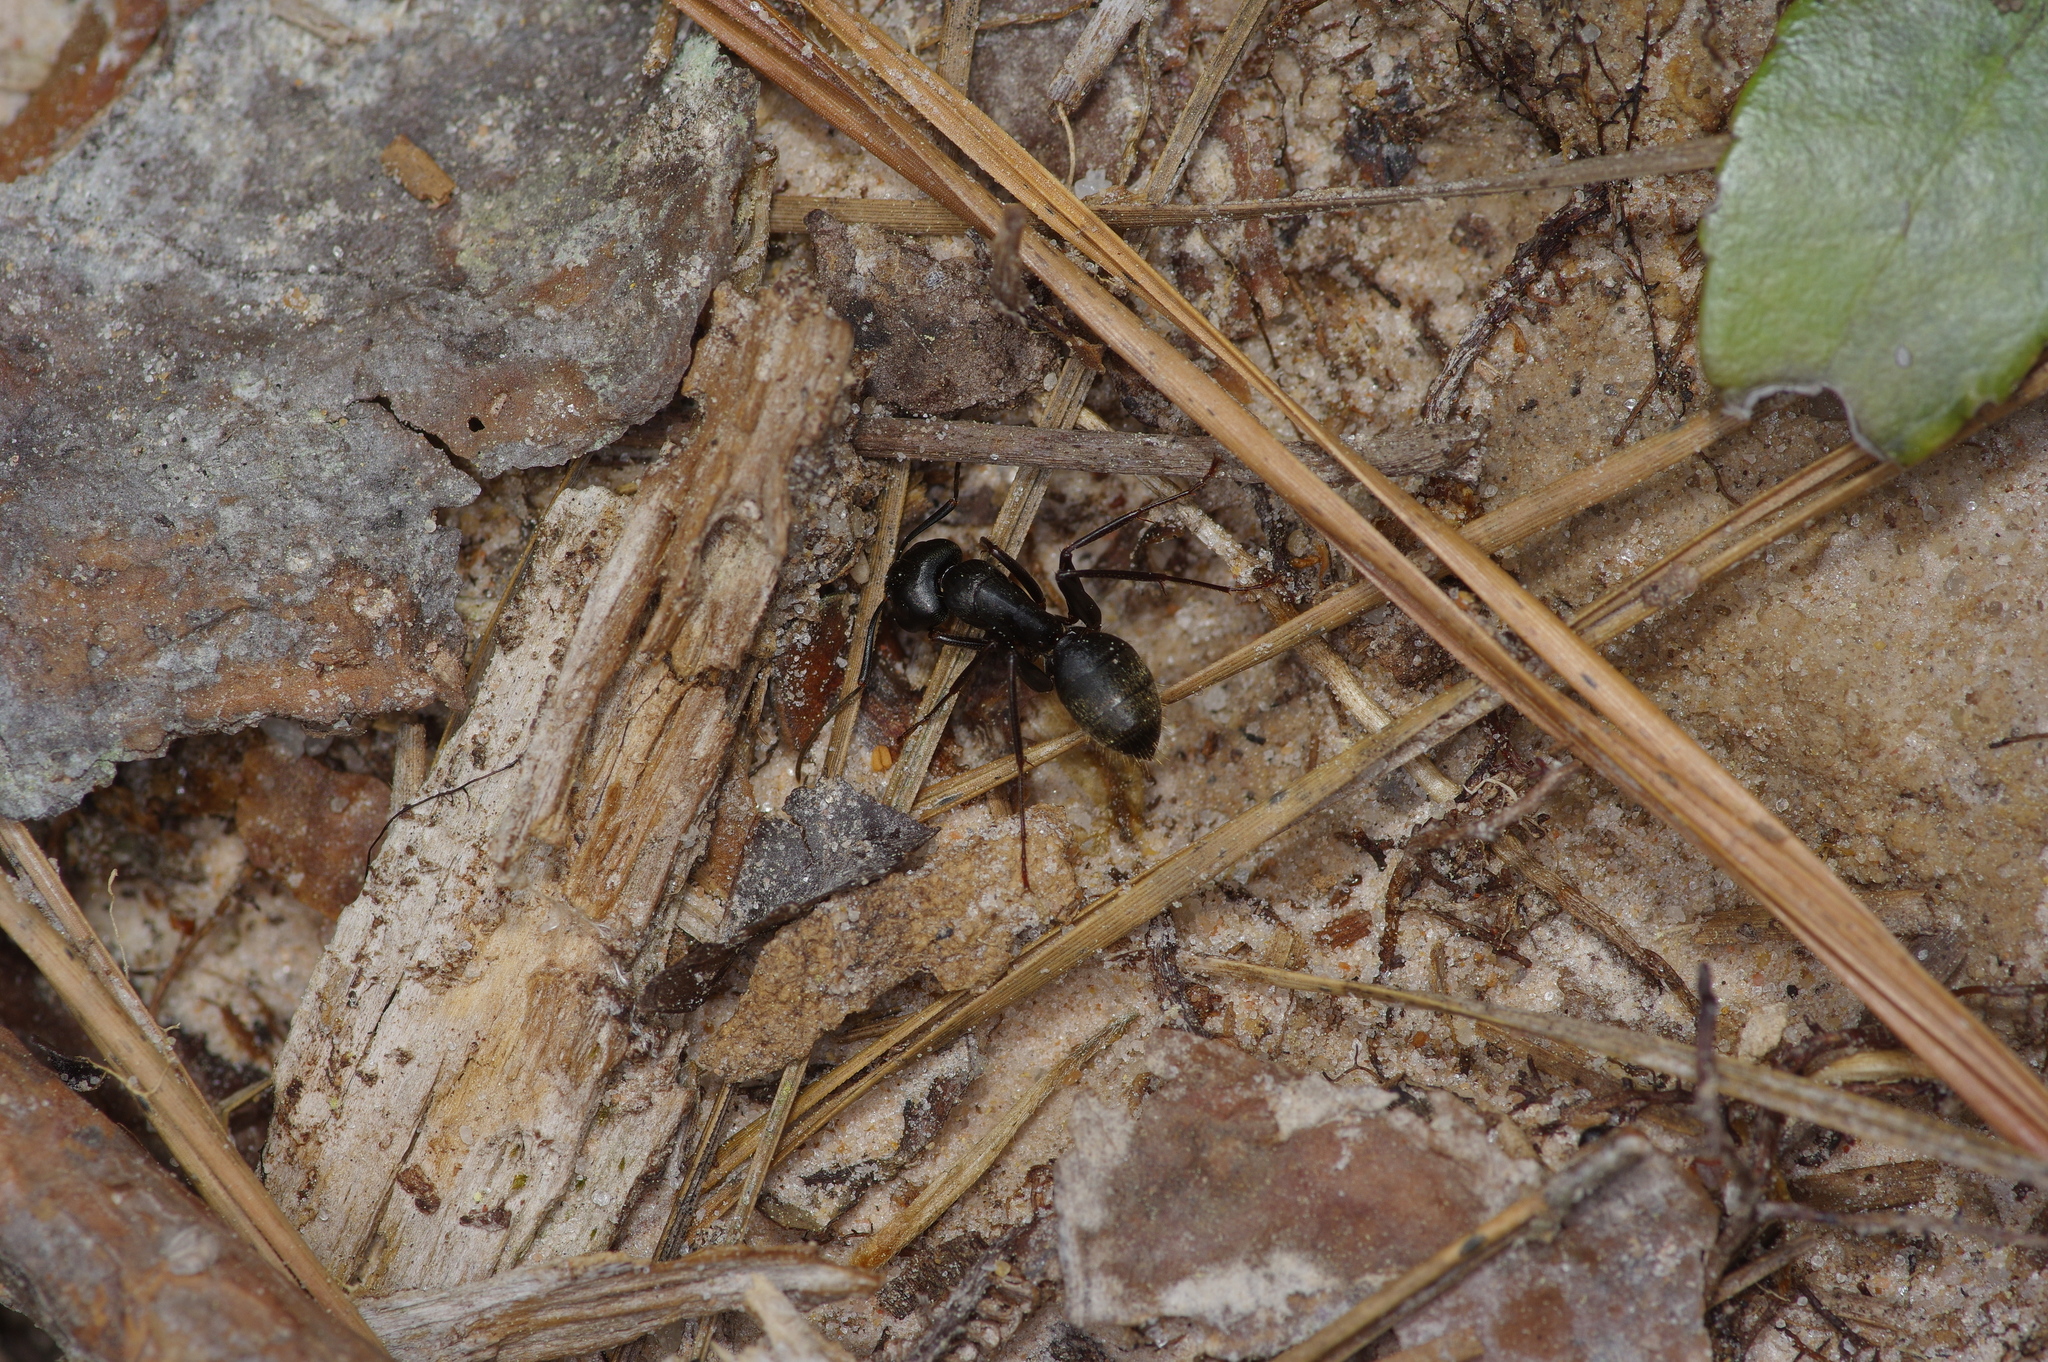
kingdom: Animalia
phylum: Arthropoda
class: Insecta
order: Hymenoptera
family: Formicidae
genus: Camponotus
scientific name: Camponotus pennsylvanicus
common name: Black carpenter ant
